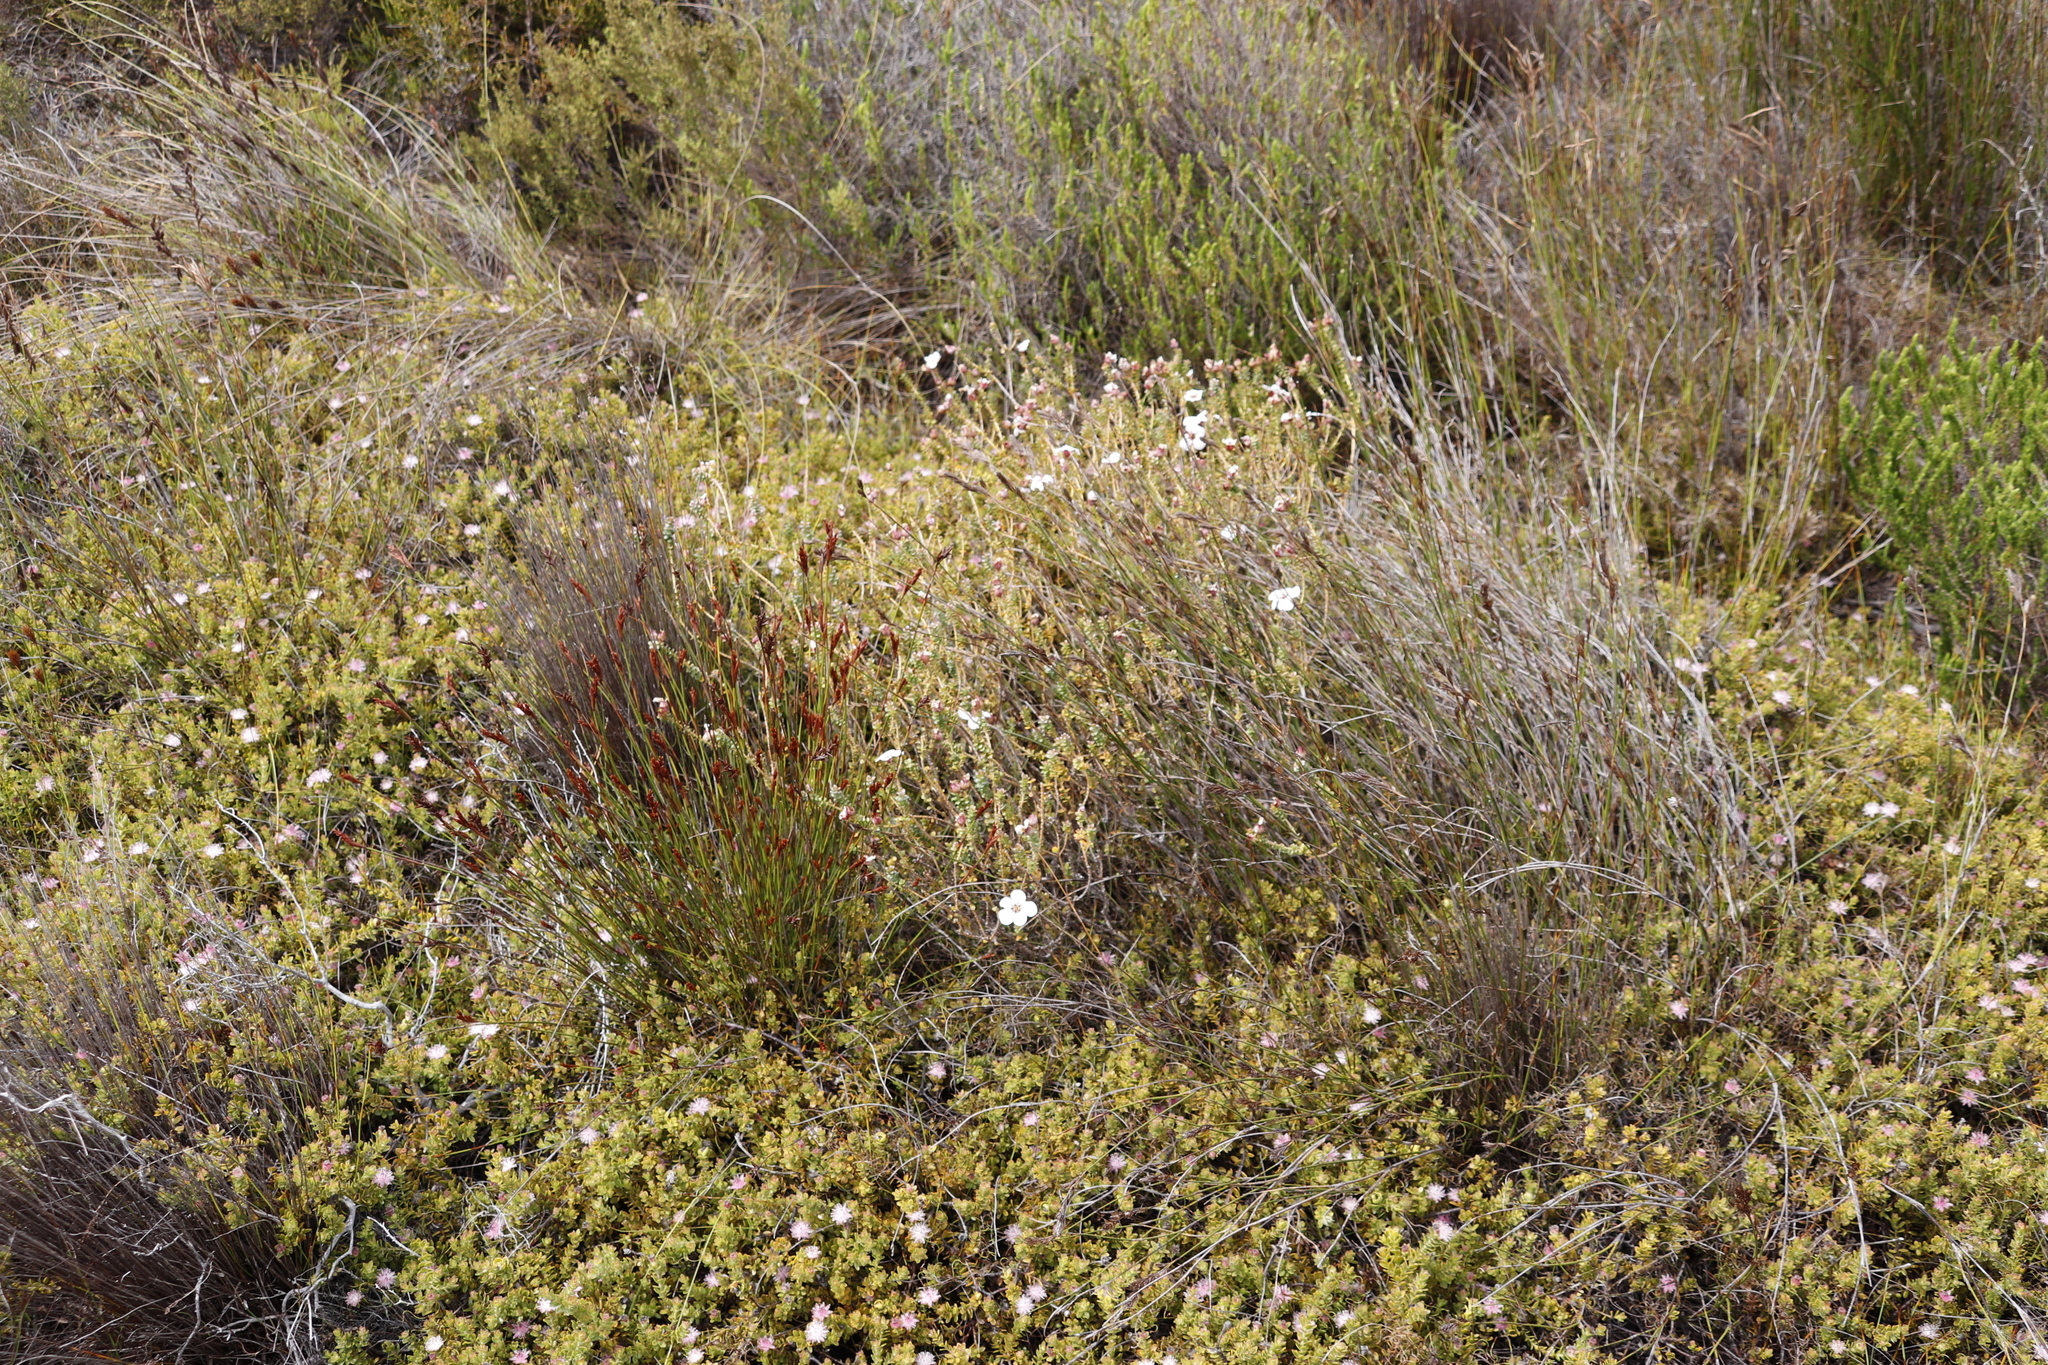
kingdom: Plantae
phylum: Tracheophyta
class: Magnoliopsida
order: Proteales
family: Proteaceae
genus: Diastella
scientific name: Diastella divaricata
